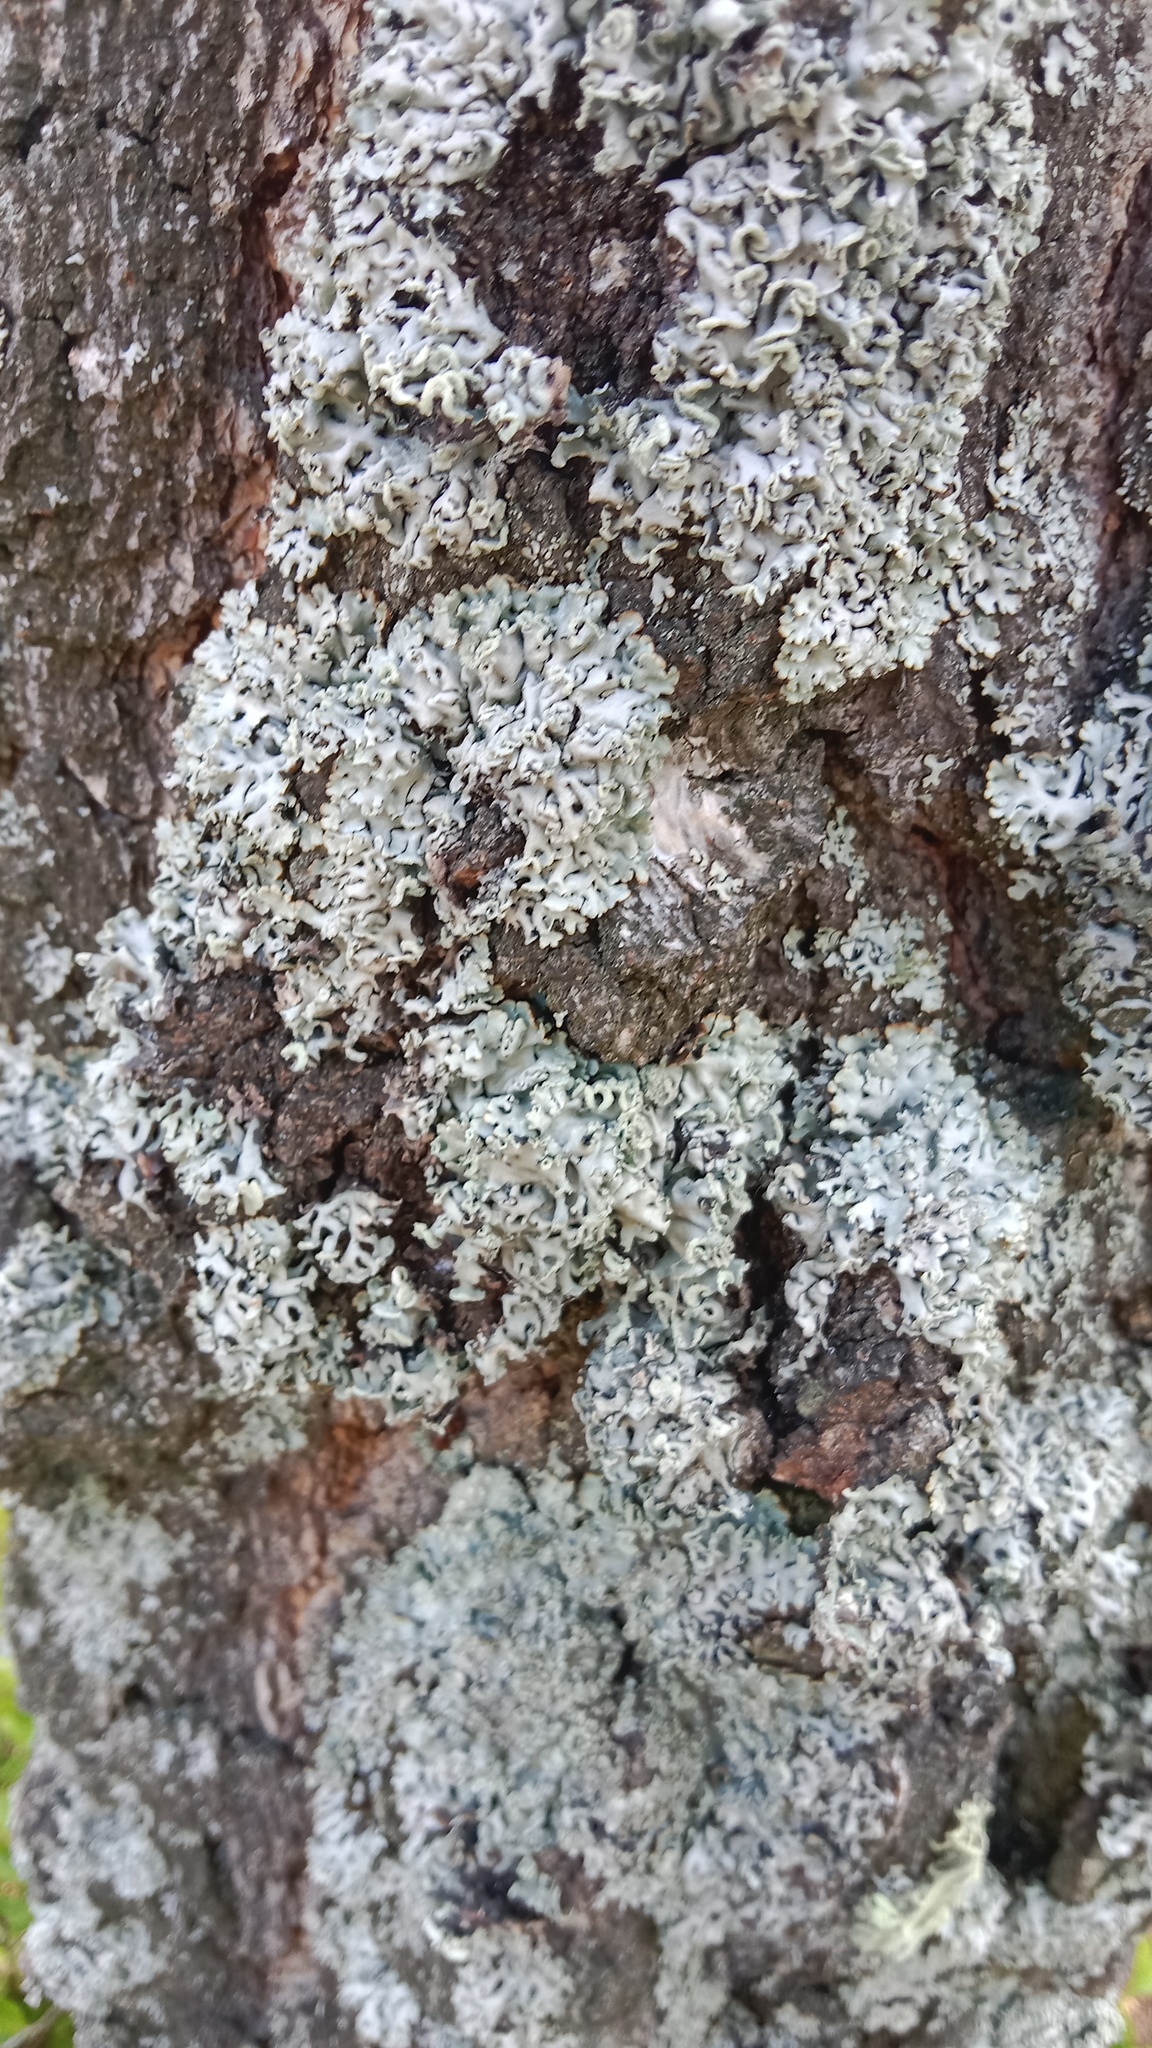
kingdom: Fungi
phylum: Ascomycota
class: Lecanoromycetes
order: Lecanorales
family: Parmeliaceae
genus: Hypogymnia
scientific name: Hypogymnia physodes
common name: Dark crottle
